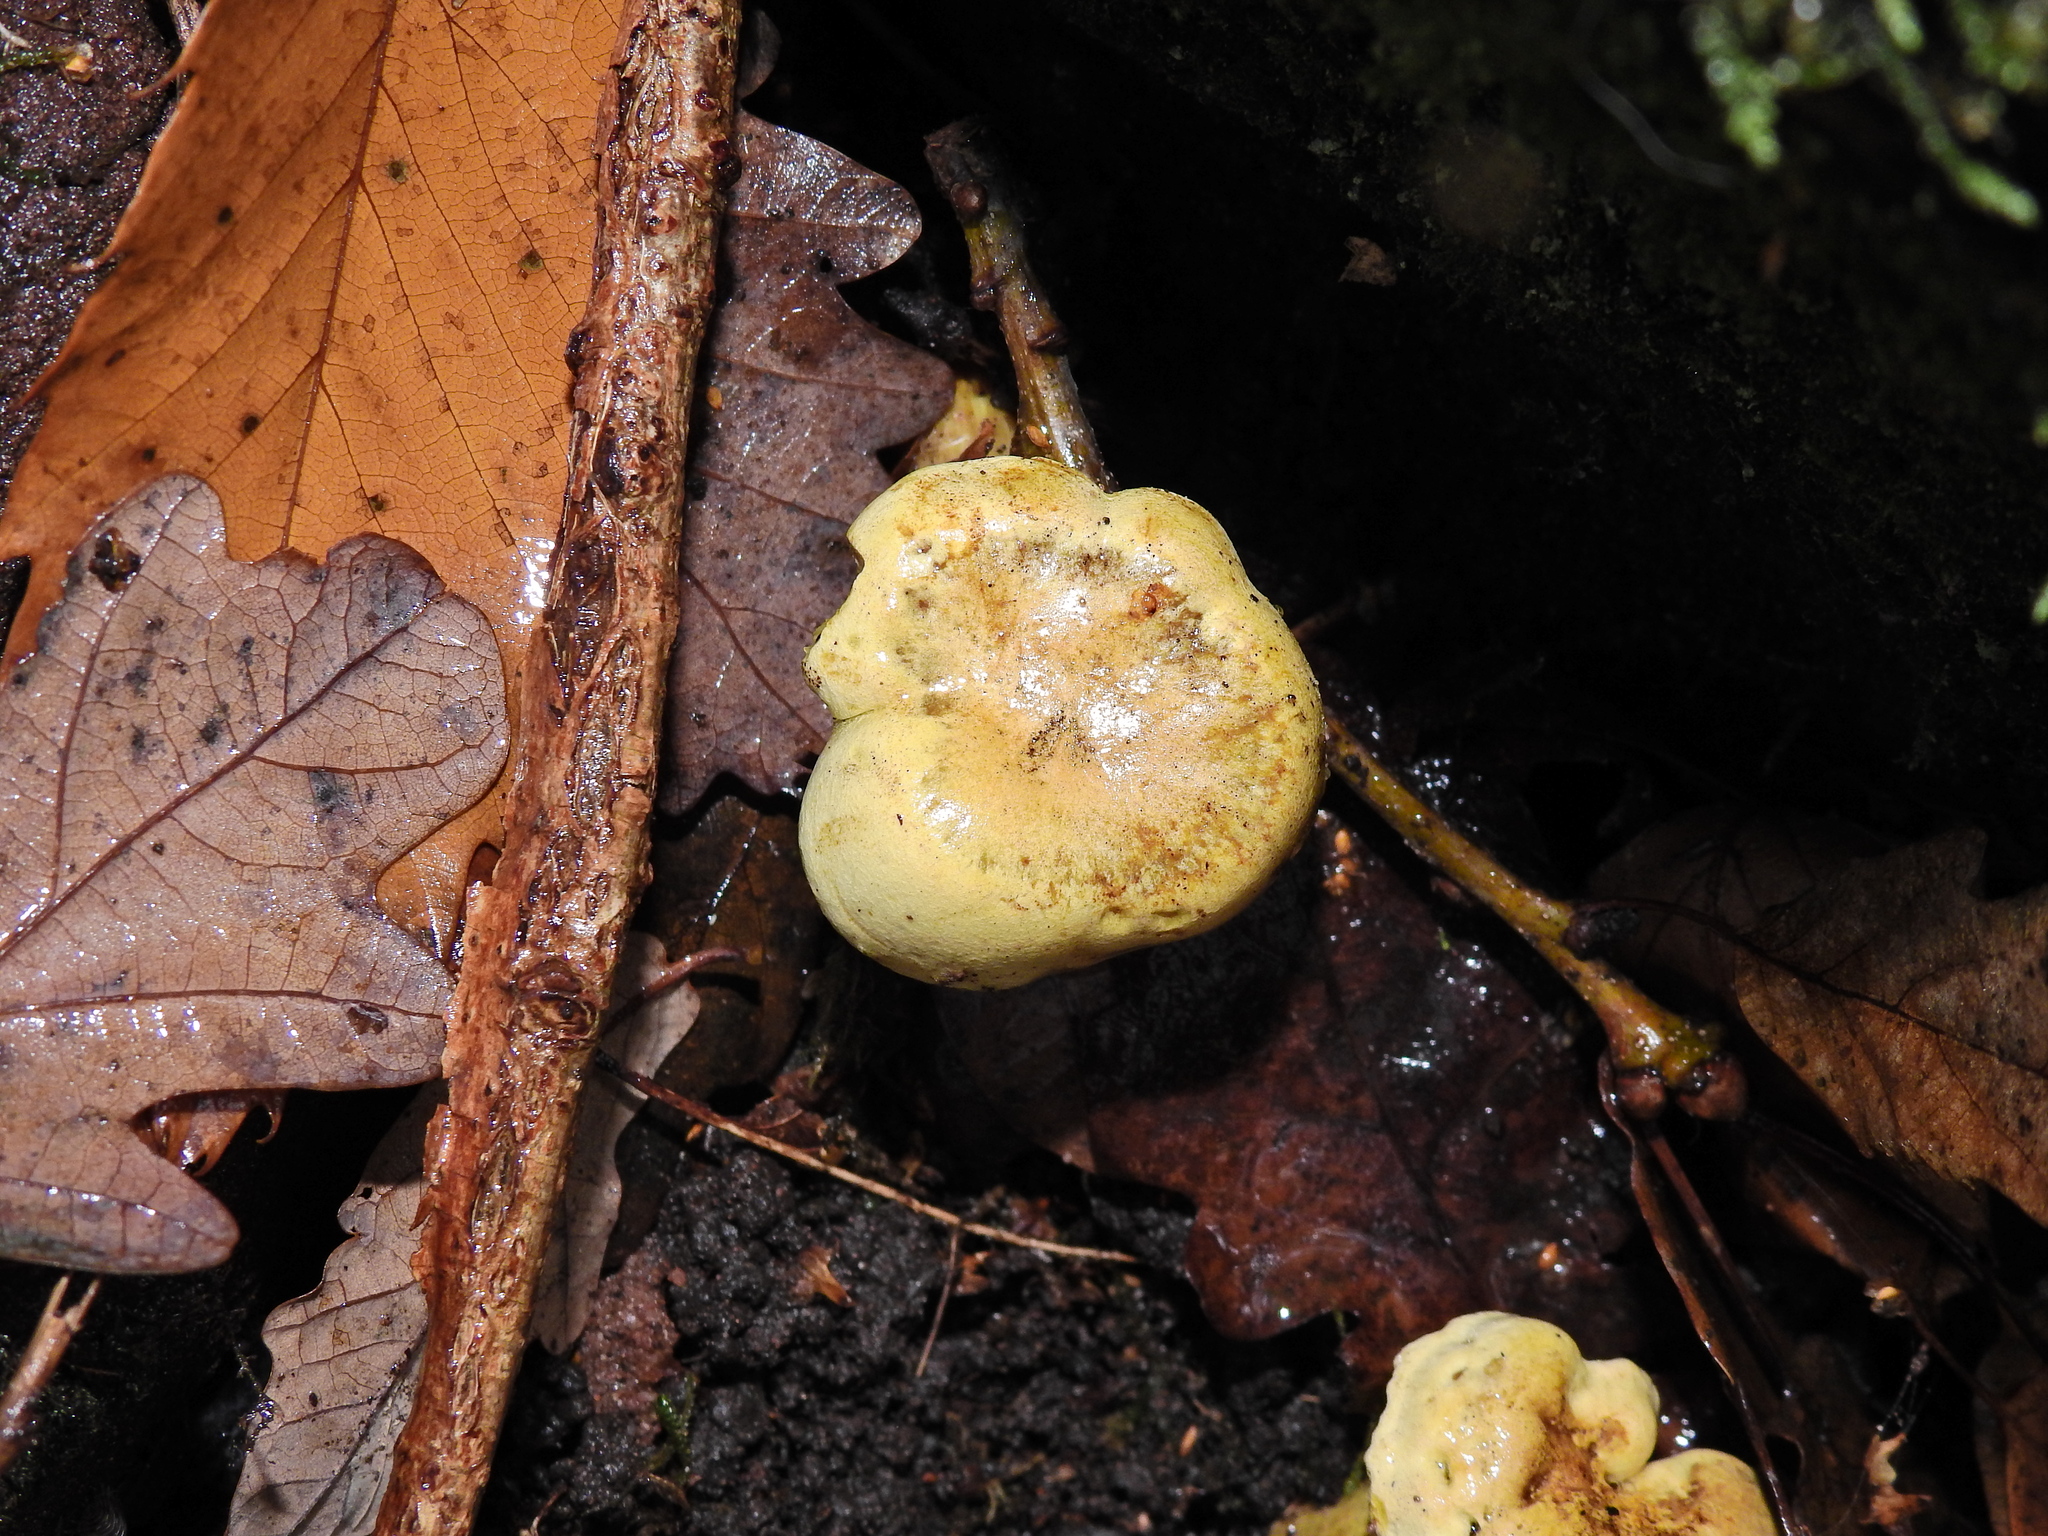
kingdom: Fungi
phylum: Basidiomycota
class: Agaricomycetes
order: Agaricales
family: Tricholomataceae
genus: Tricholoma
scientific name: Tricholoma sulphureum
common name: Stinky knight
